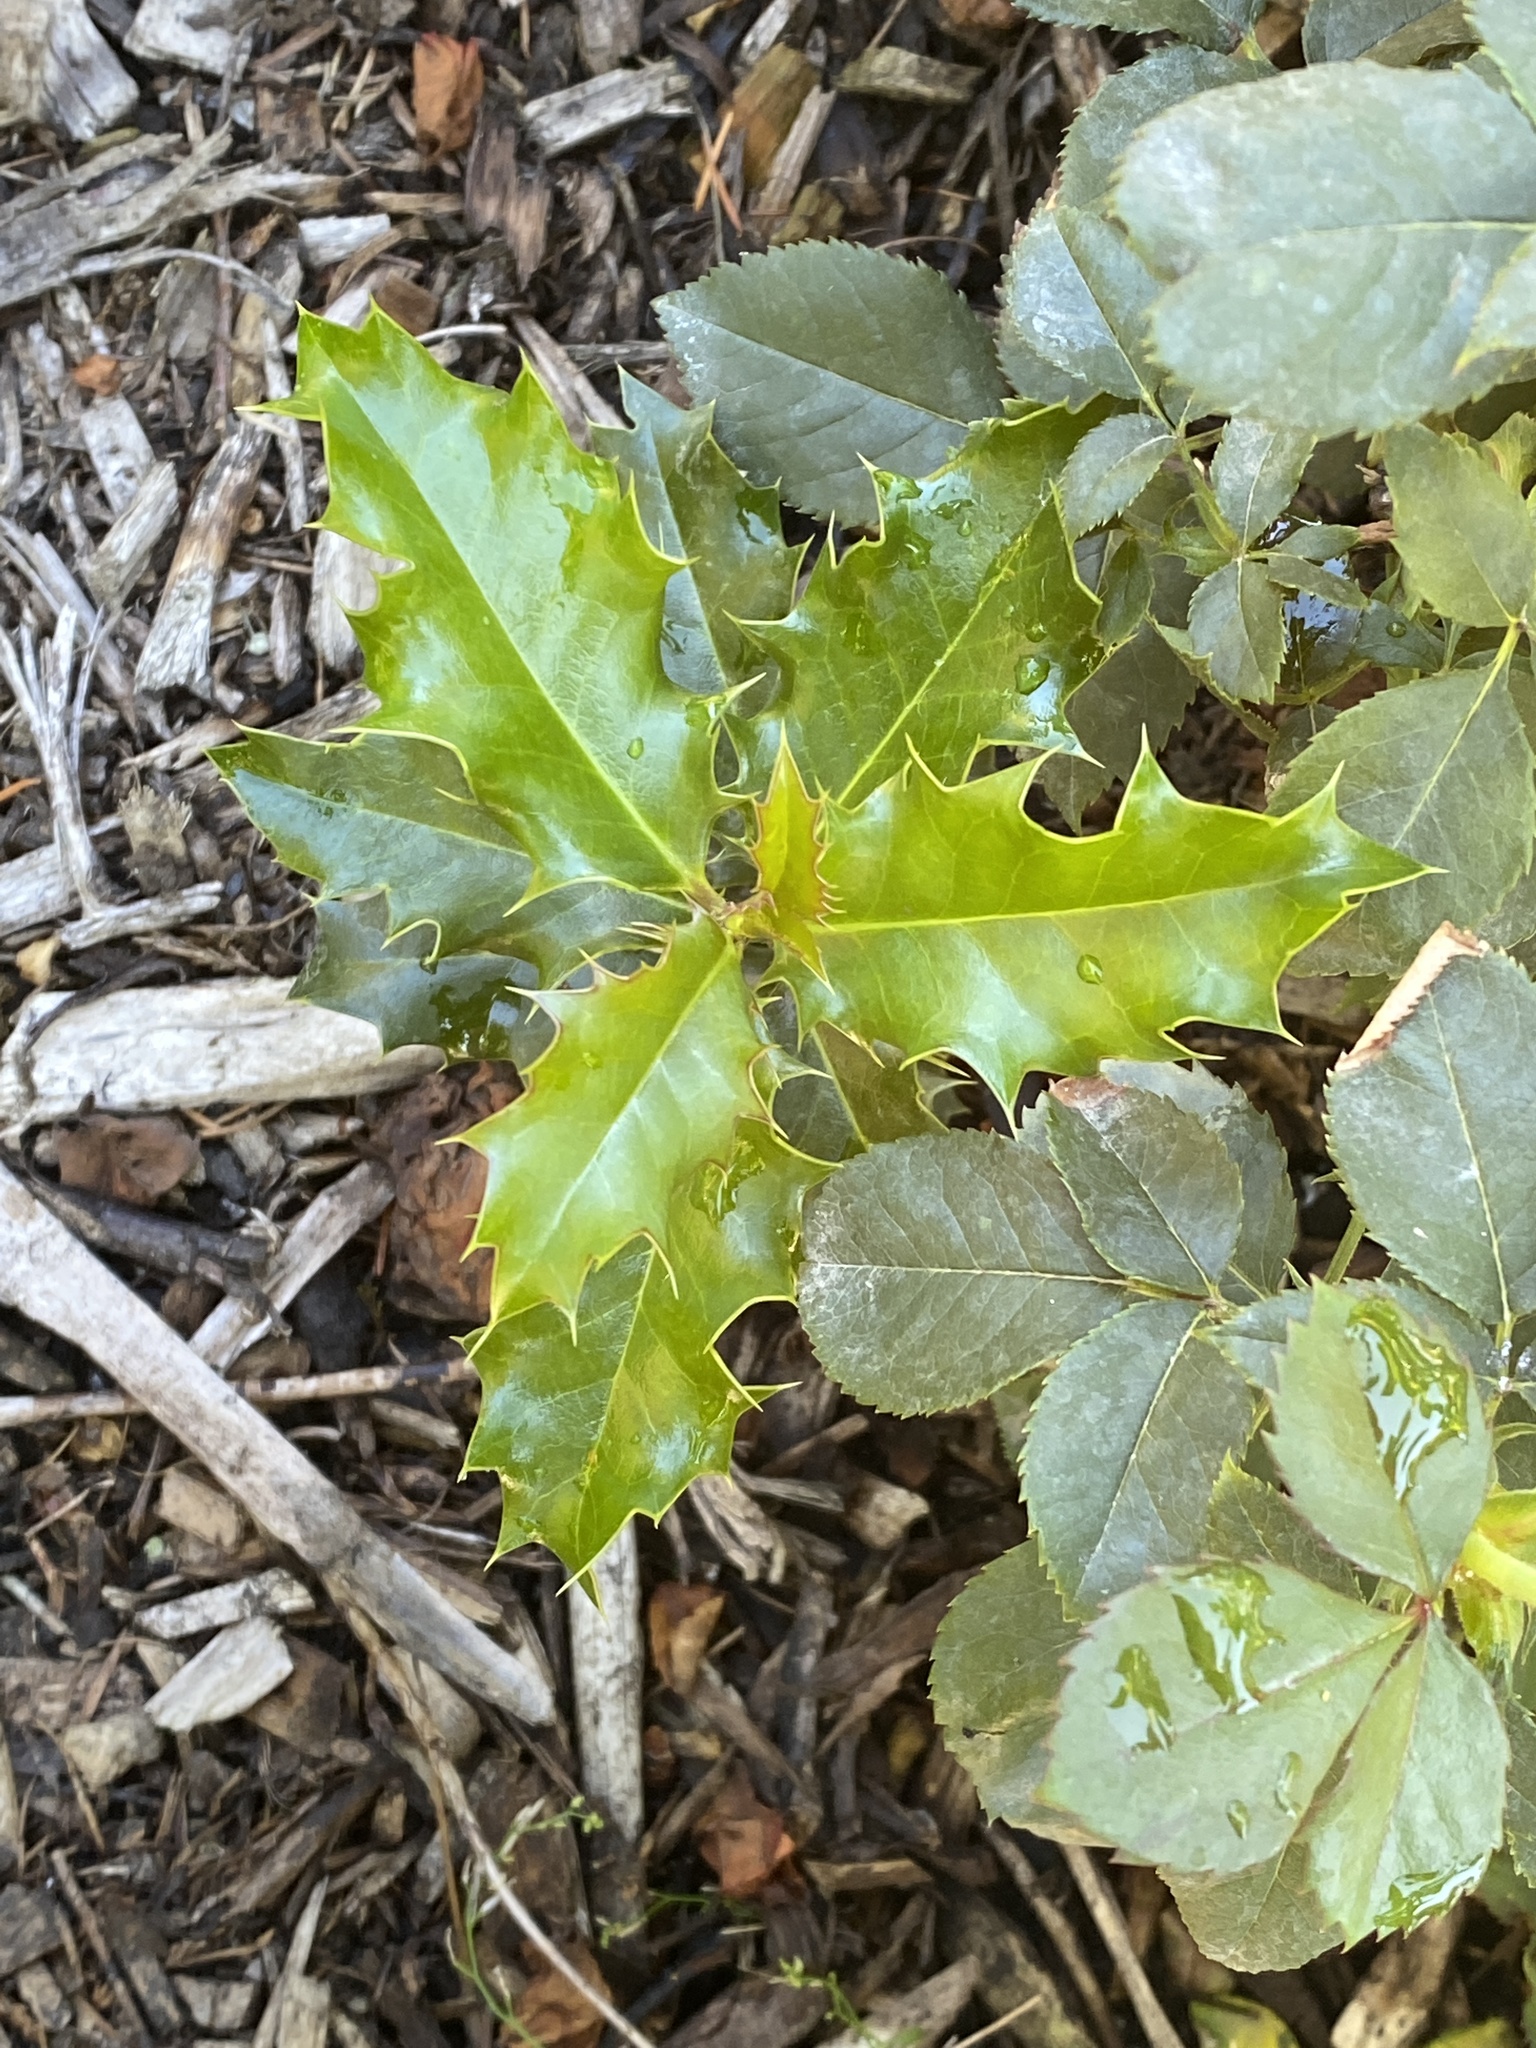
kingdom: Plantae
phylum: Tracheophyta
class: Magnoliopsida
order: Aquifoliales
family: Aquifoliaceae
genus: Ilex
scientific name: Ilex aquifolium
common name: English holly
